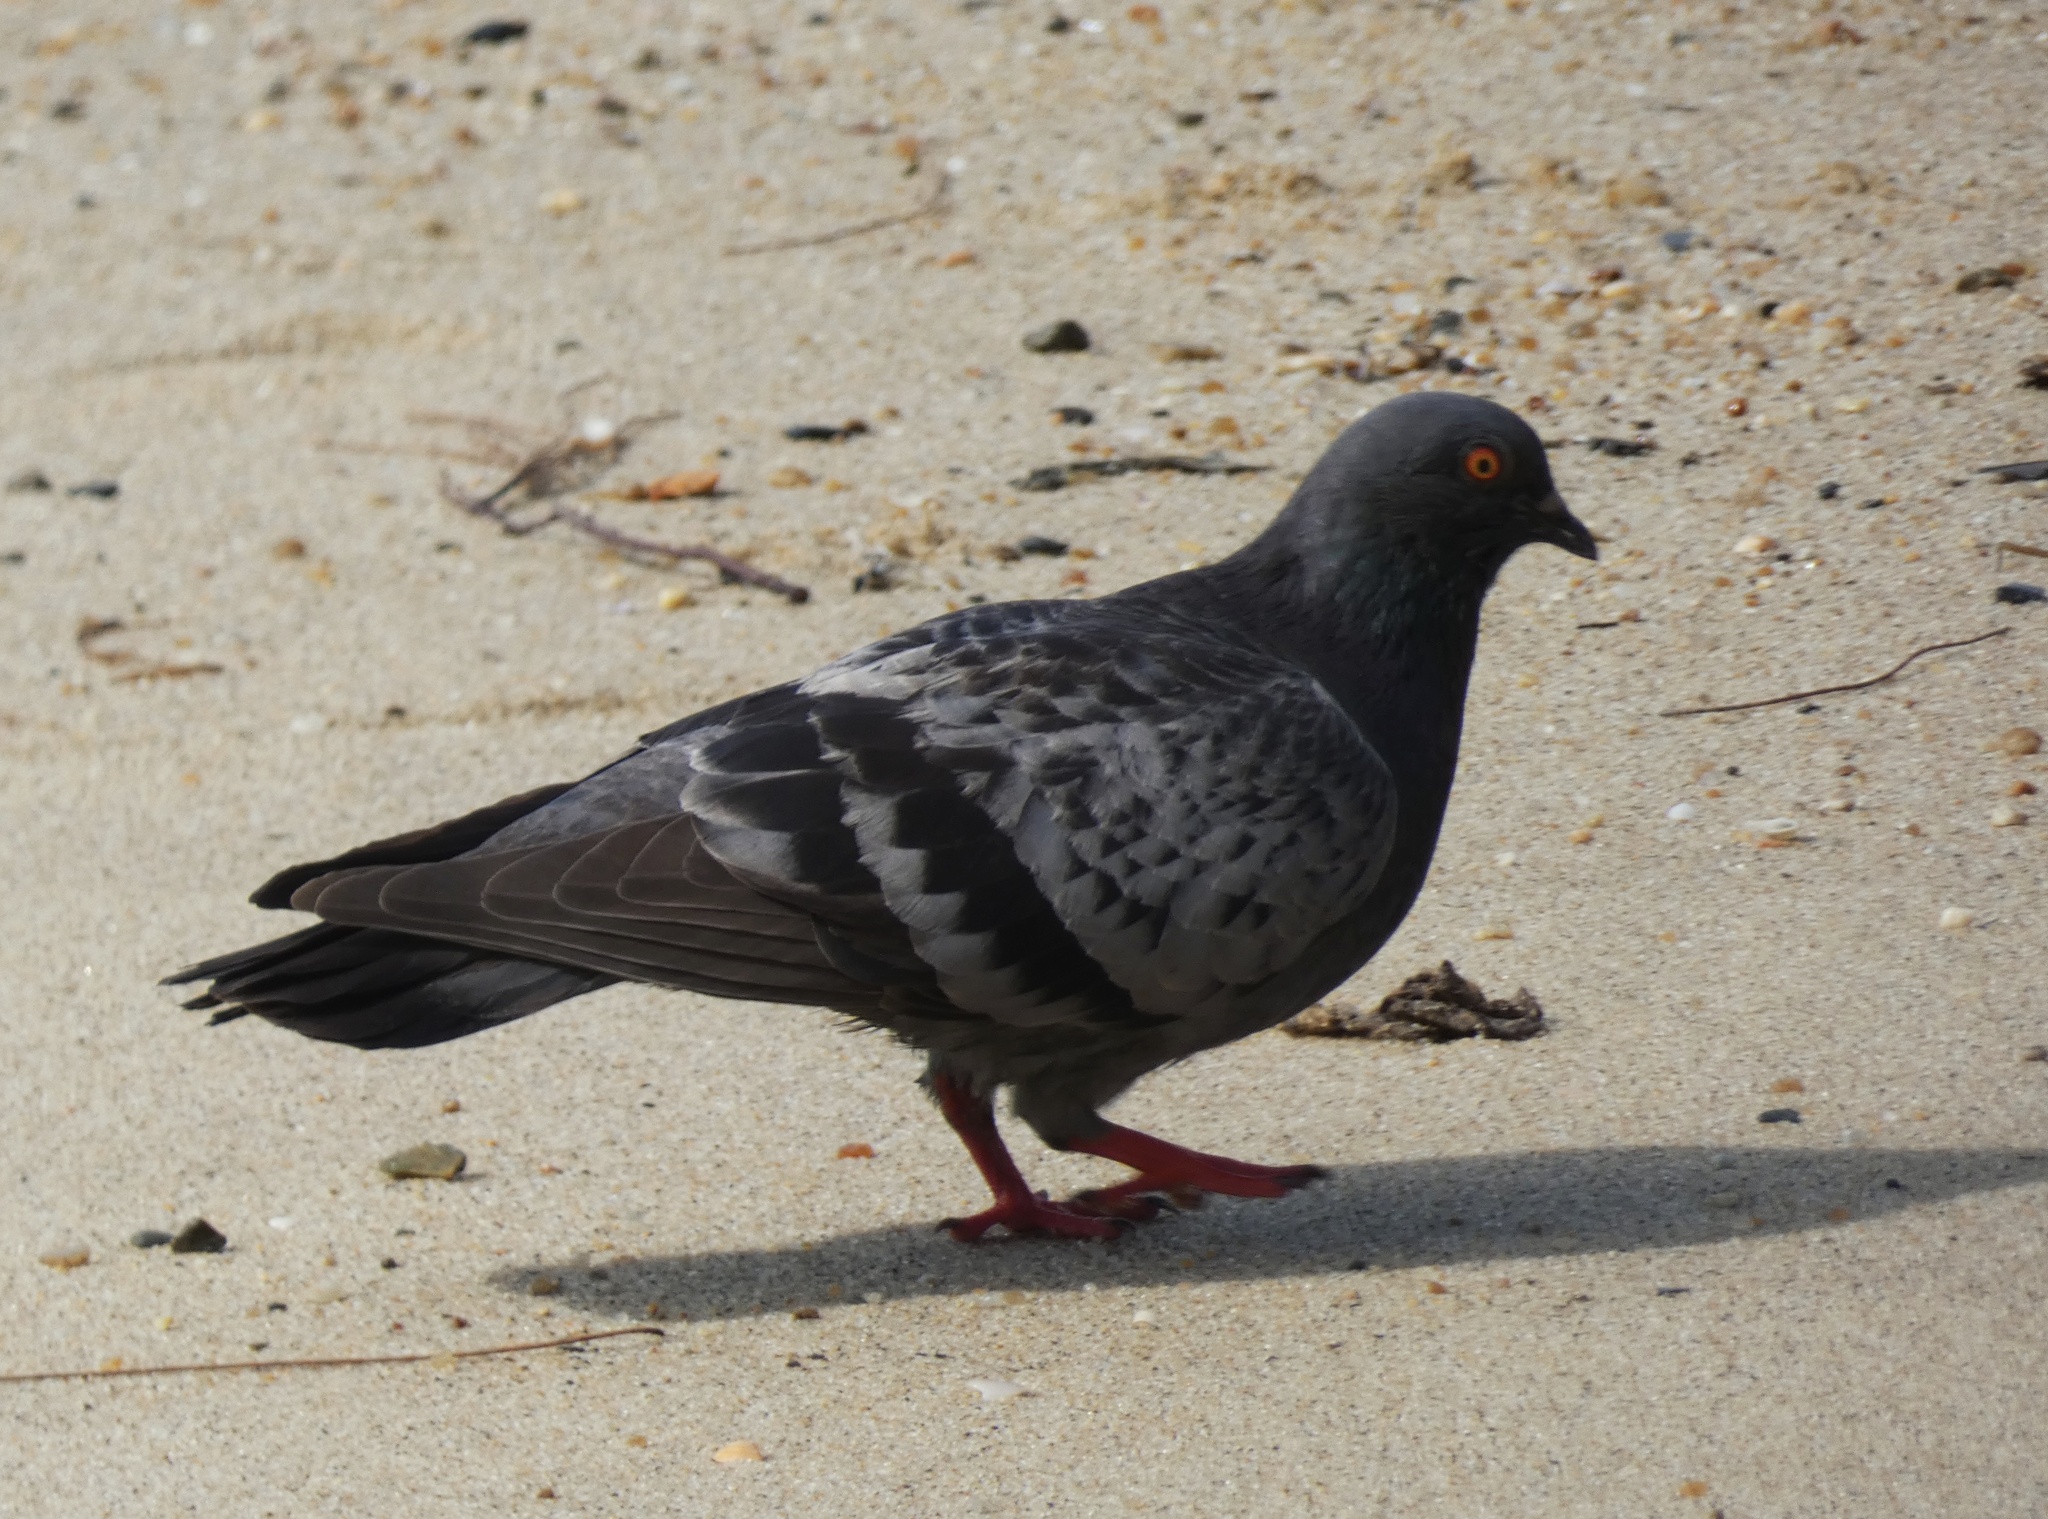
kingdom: Animalia
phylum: Chordata
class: Aves
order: Columbiformes
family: Columbidae
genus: Columba
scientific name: Columba livia
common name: Rock pigeon
